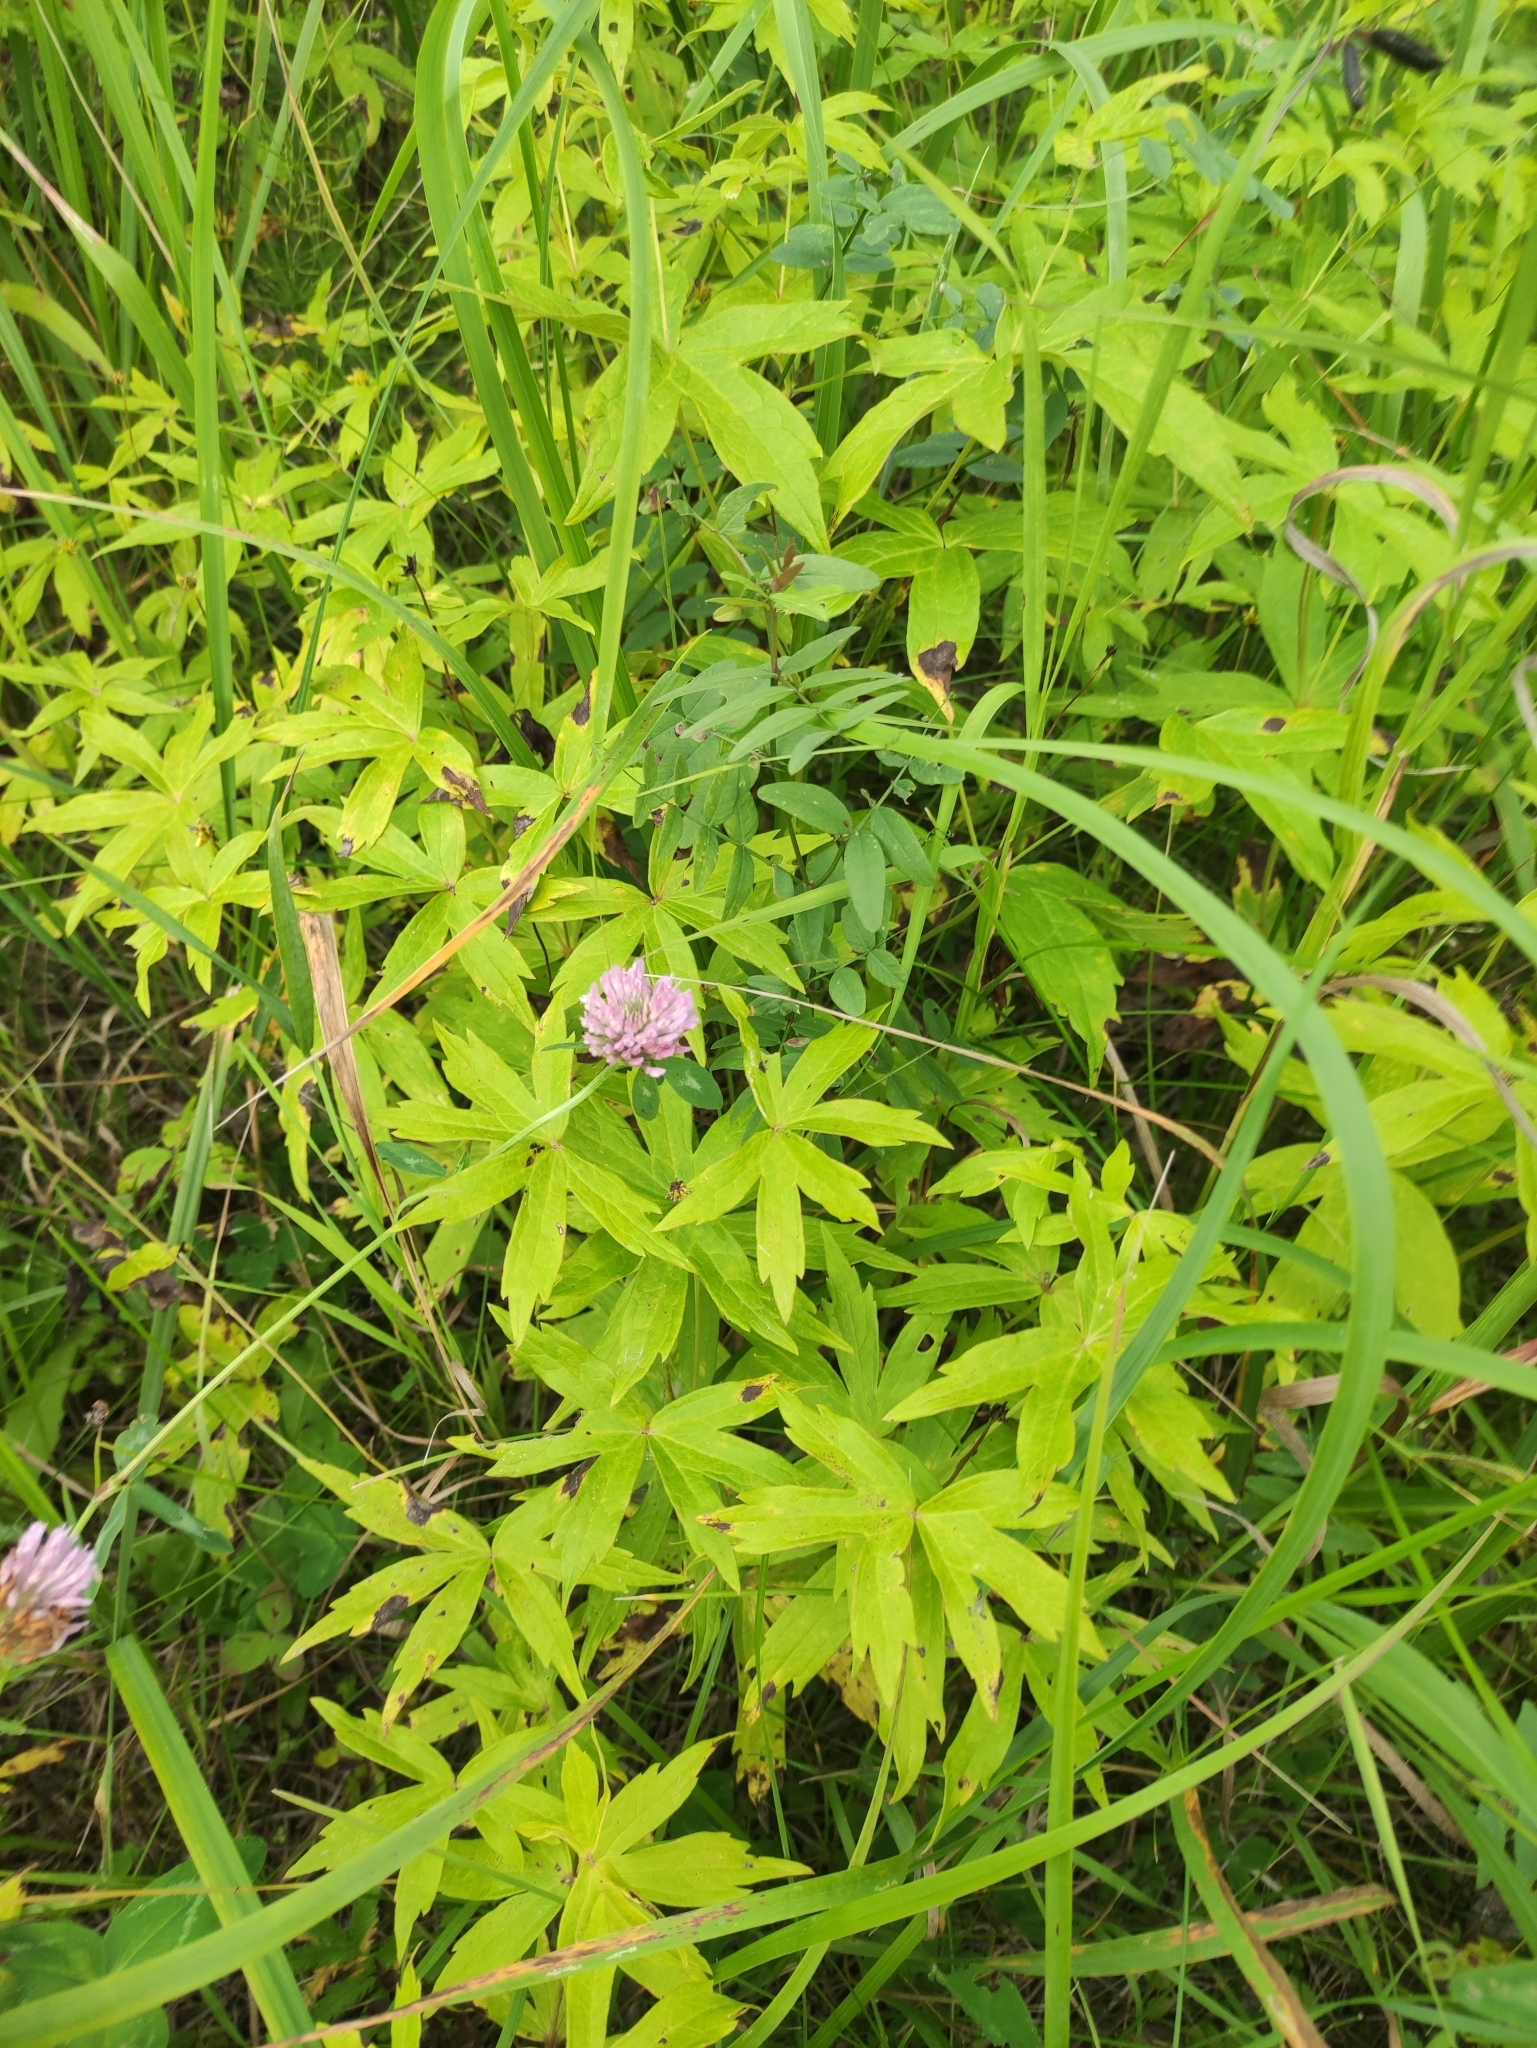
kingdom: Plantae
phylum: Tracheophyta
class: Magnoliopsida
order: Ranunculales
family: Ranunculaceae
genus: Anemonastrum
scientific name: Anemonastrum dichotomum
